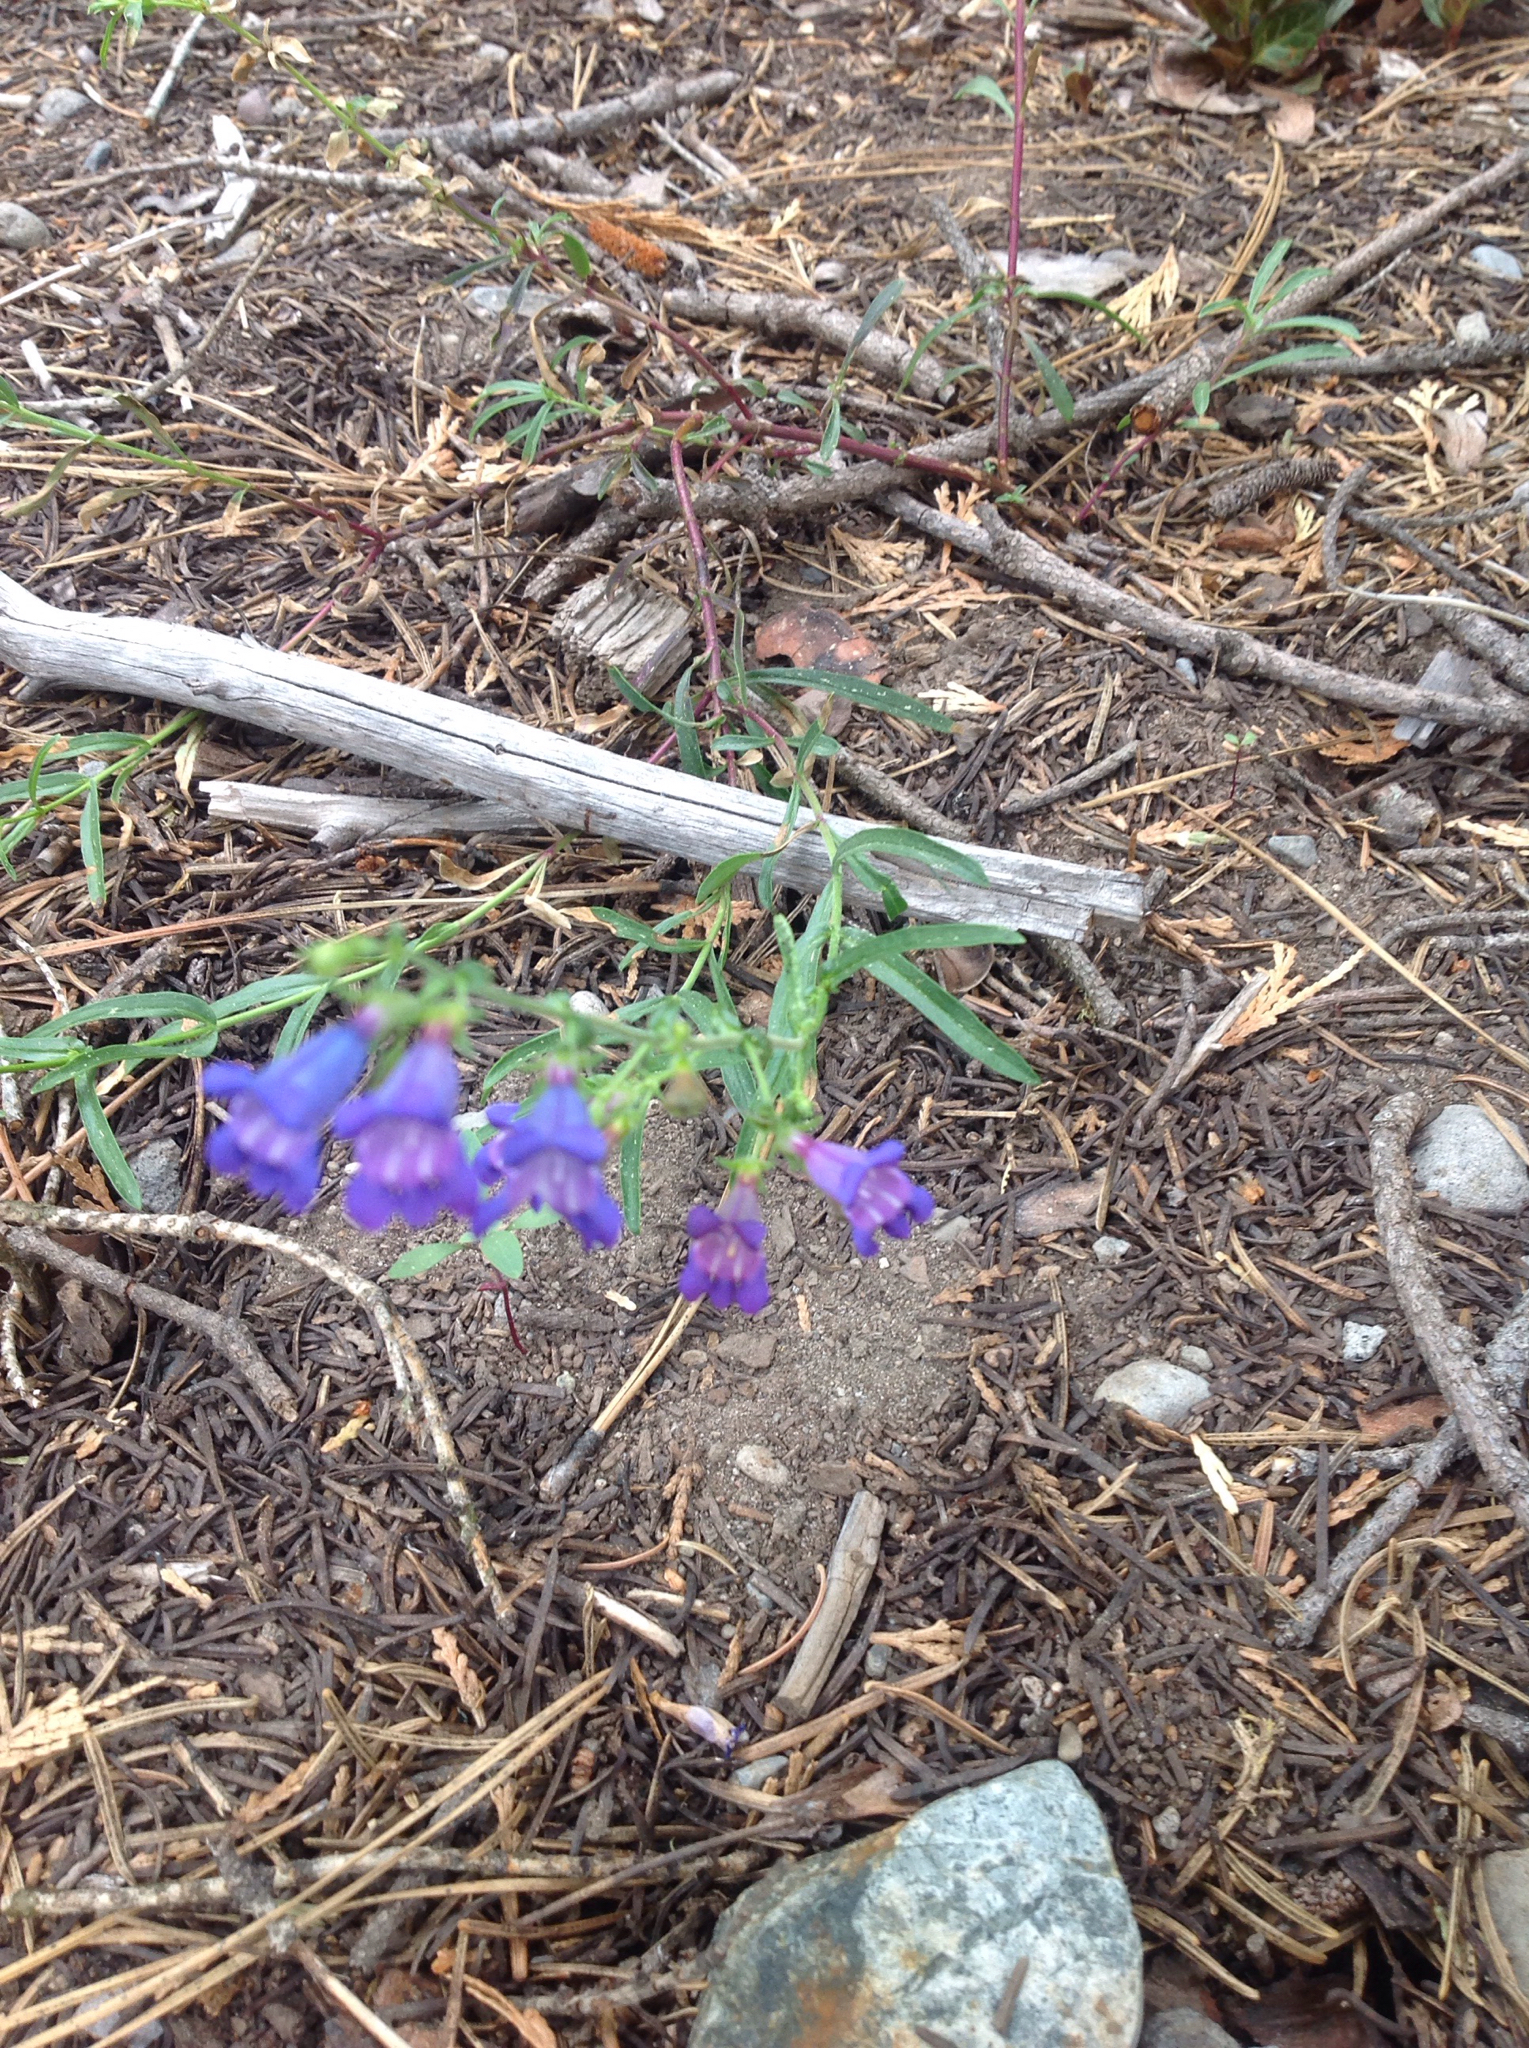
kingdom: Plantae
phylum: Tracheophyta
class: Magnoliopsida
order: Lamiales
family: Plantaginaceae
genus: Penstemon
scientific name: Penstemon speciosus
